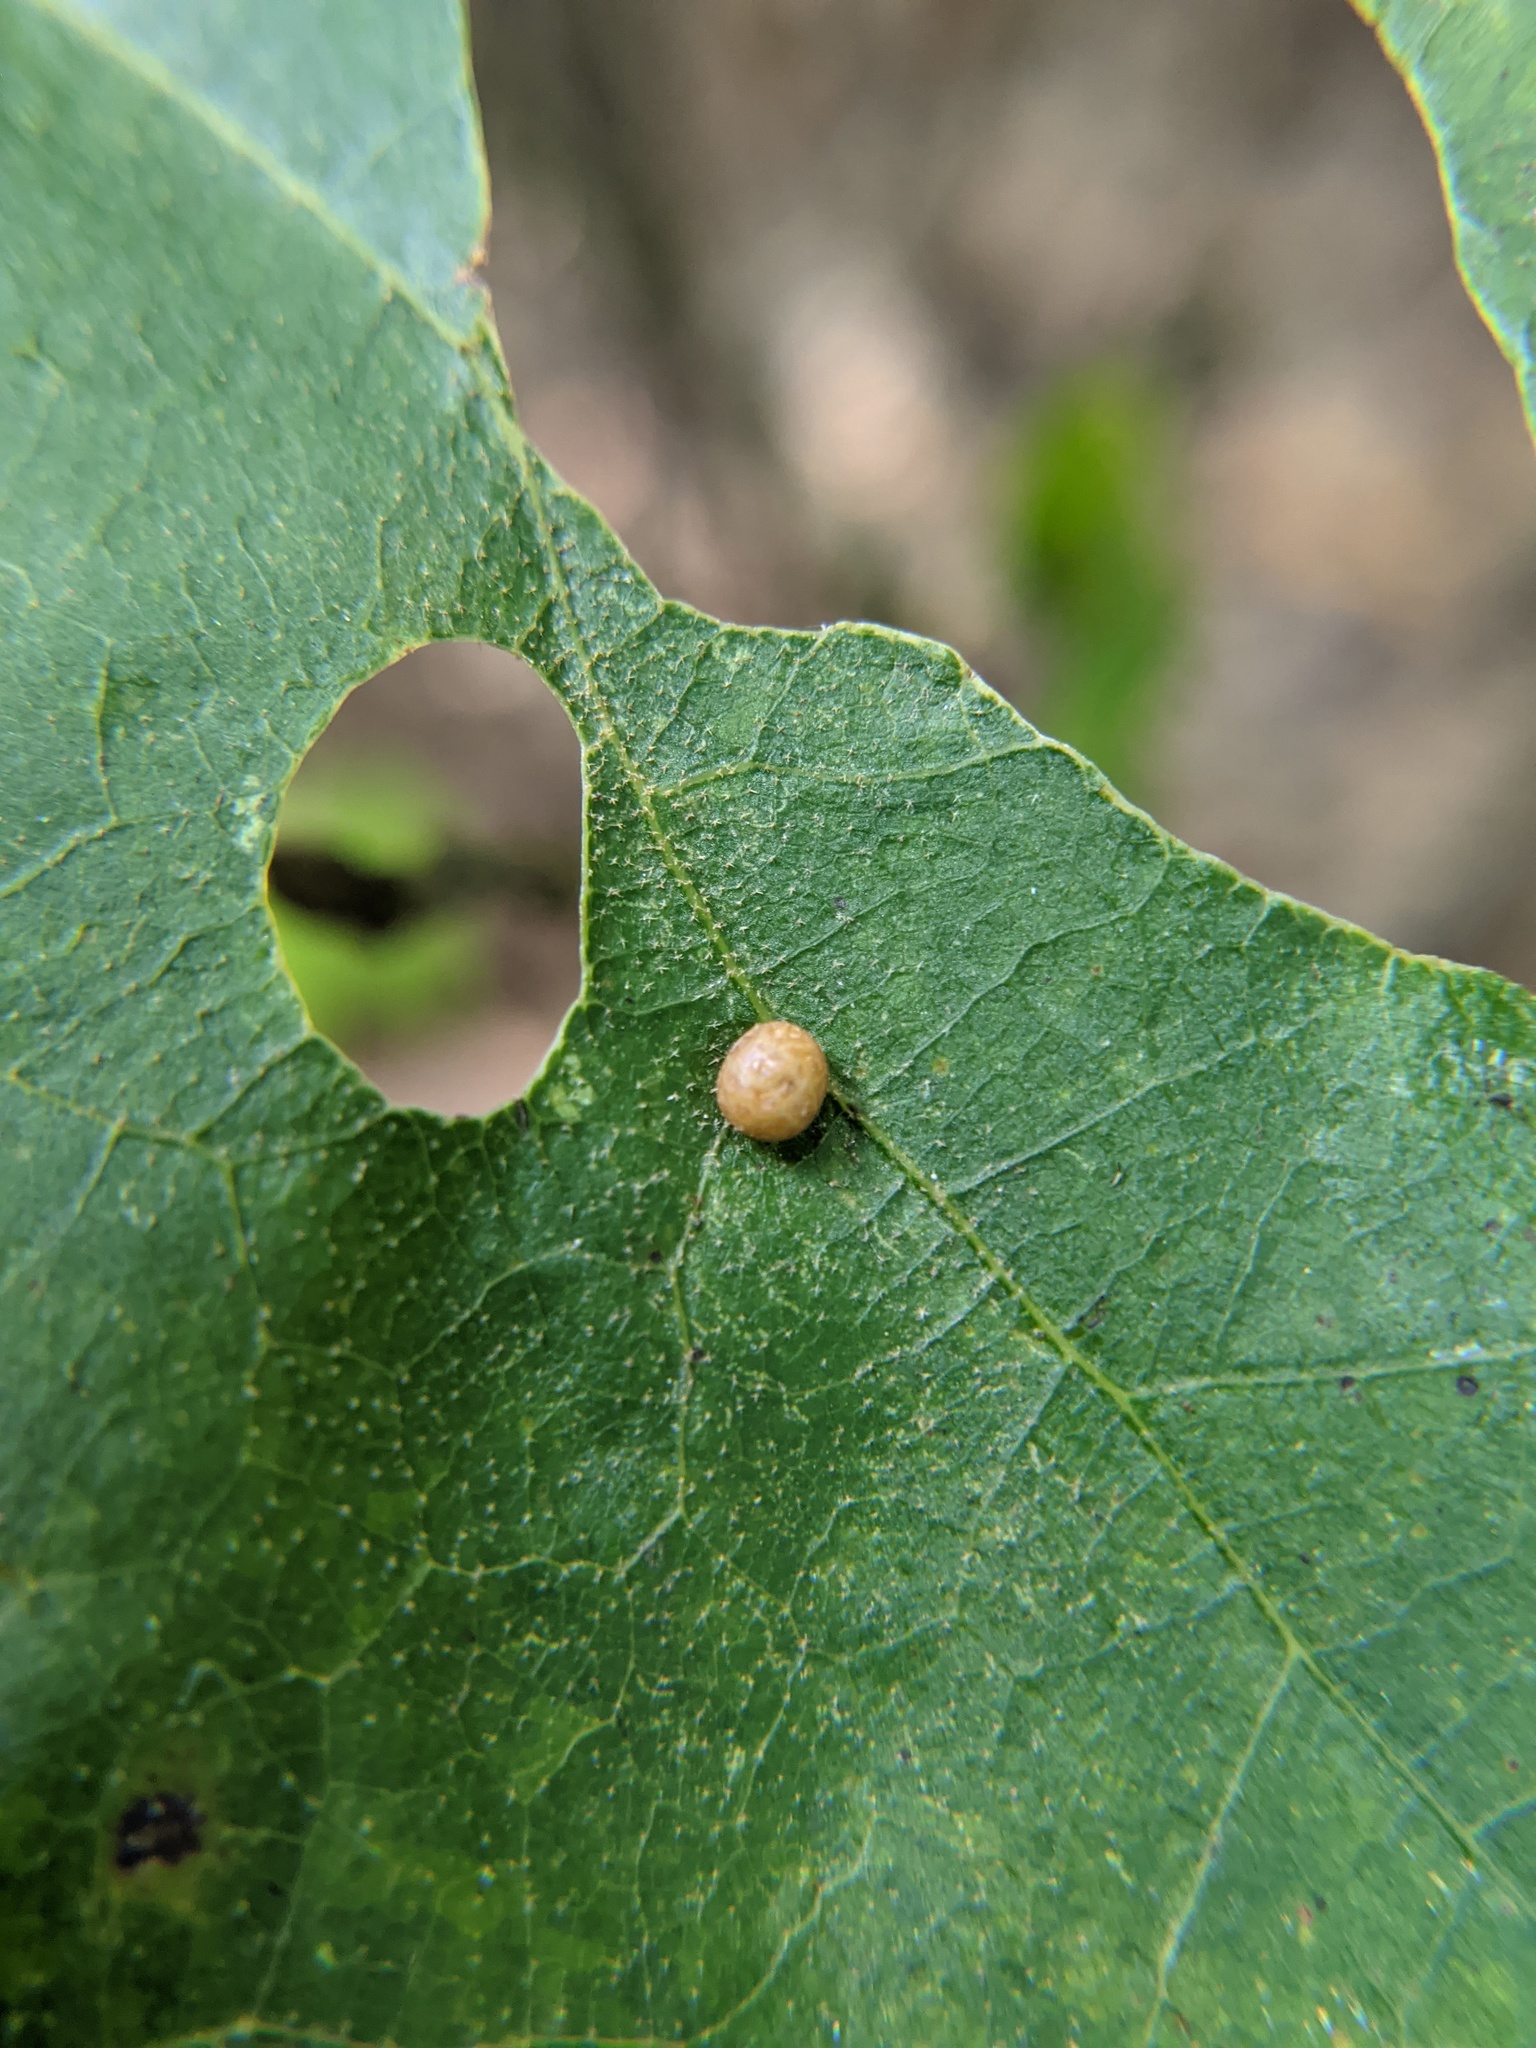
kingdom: Animalia
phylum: Arthropoda
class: Insecta
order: Diptera
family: Cecidomyiidae
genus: Polystepha
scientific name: Polystepha pilulae
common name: Oak leaf gall midge
